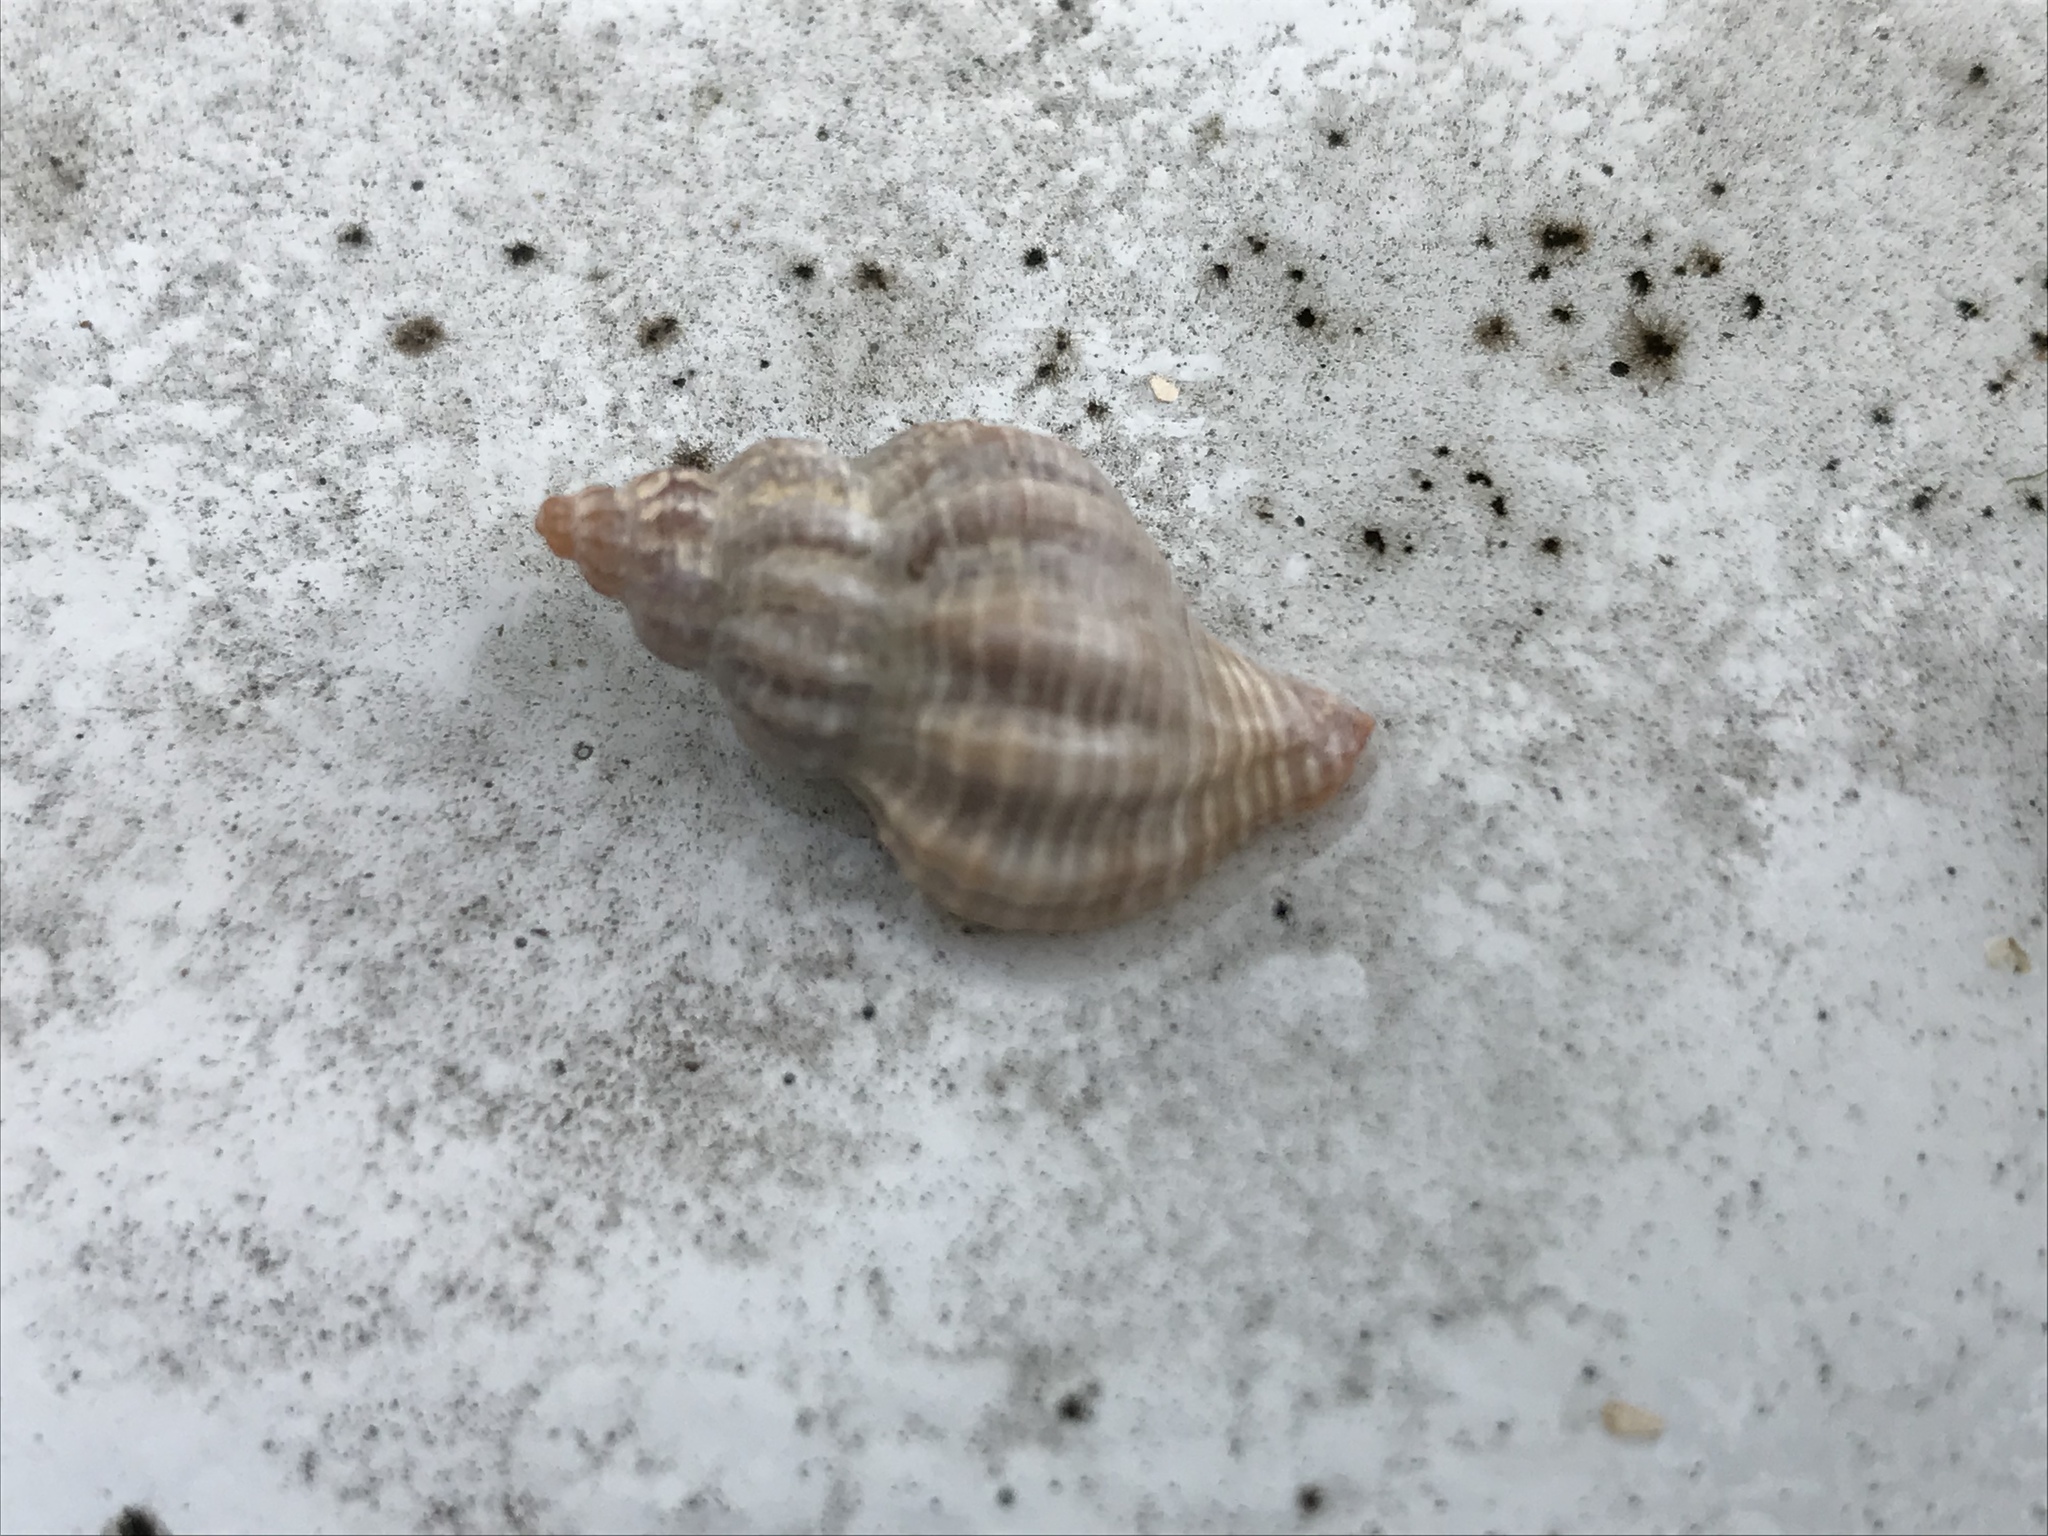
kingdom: Animalia
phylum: Mollusca
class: Gastropoda
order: Neogastropoda
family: Muricidae
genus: Urosalpinx
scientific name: Urosalpinx cinerea
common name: American sting winkle
